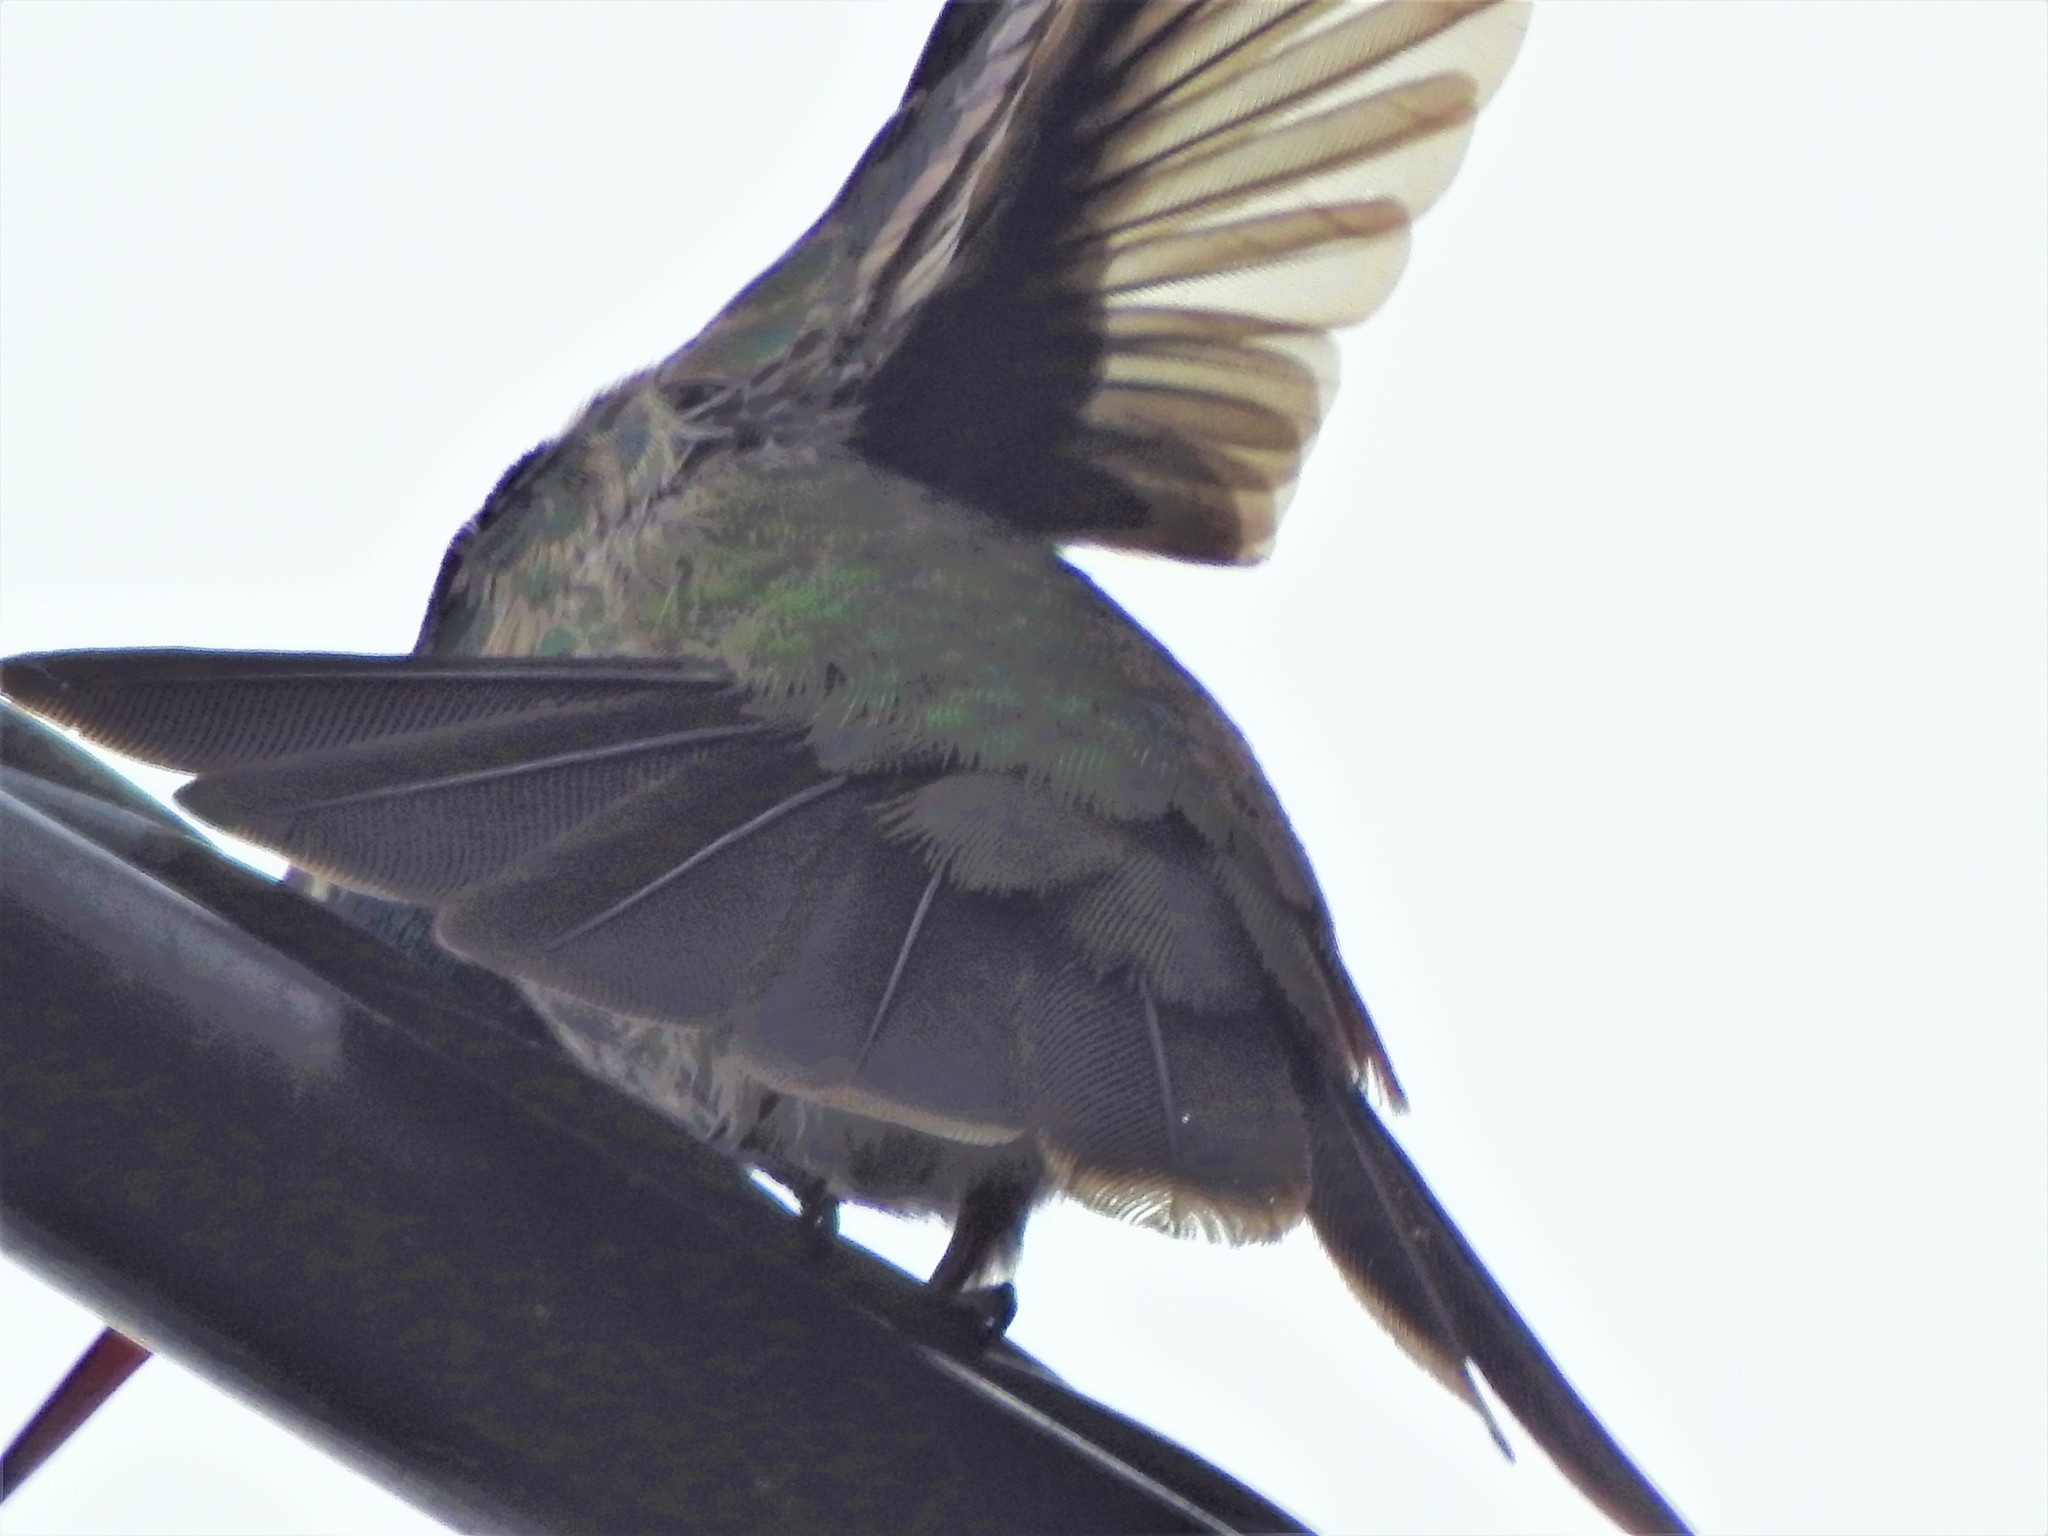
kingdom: Animalia
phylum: Chordata
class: Aves
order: Apodiformes
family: Trochilidae
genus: Cynanthus
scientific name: Cynanthus latirostris
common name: Broad-billed hummingbird
